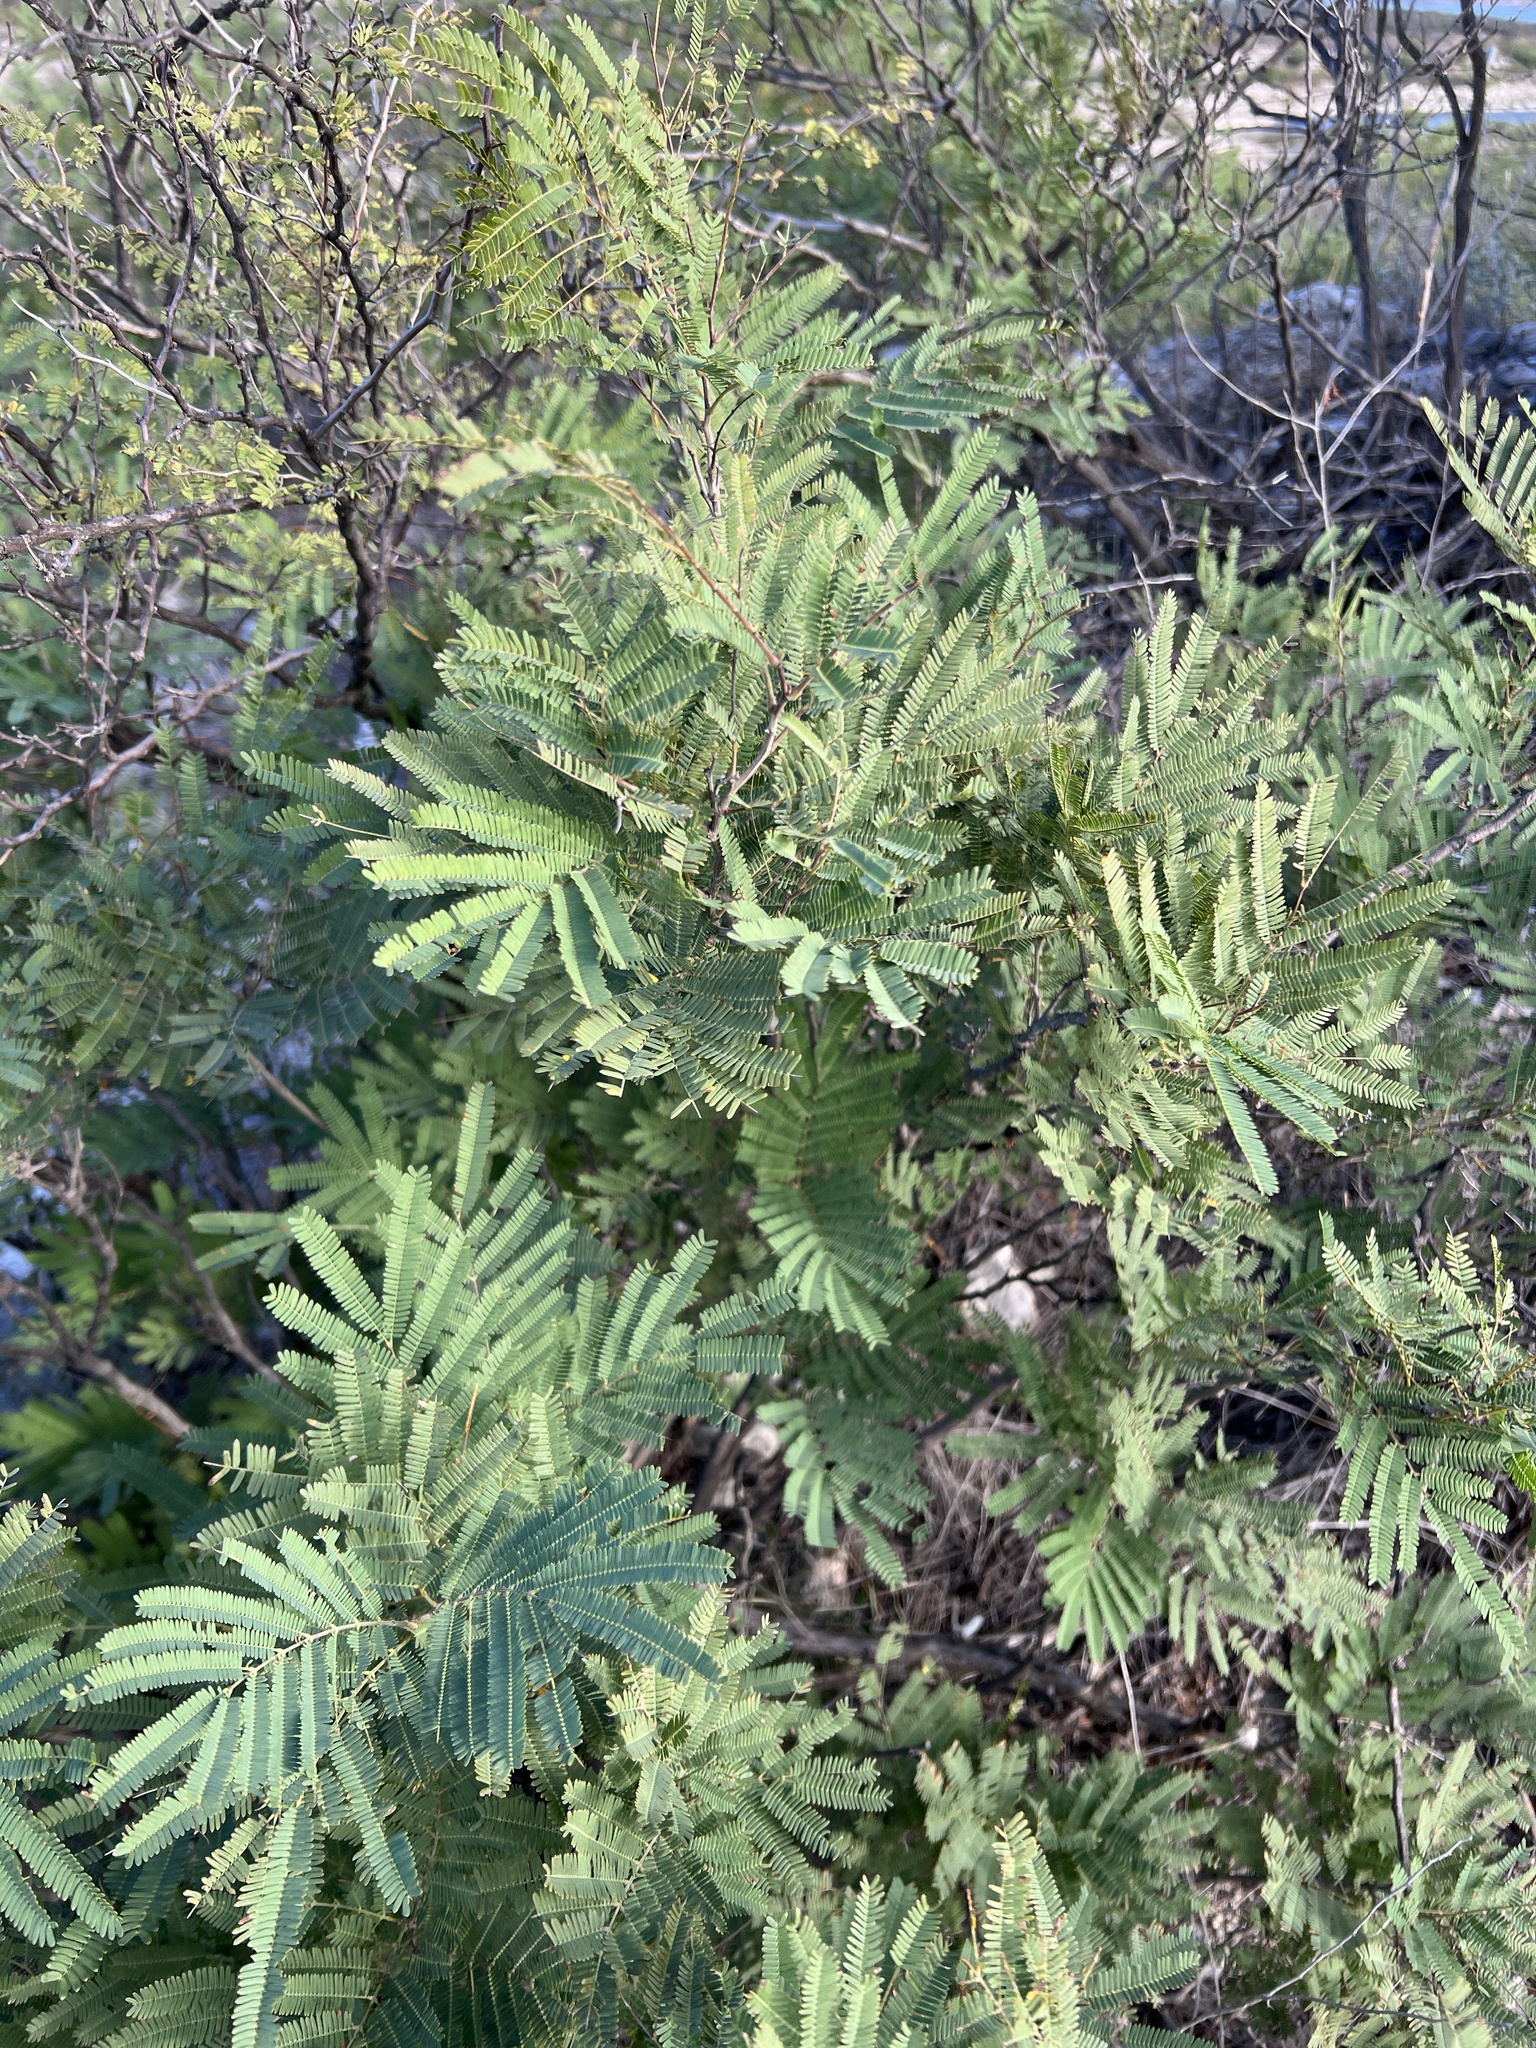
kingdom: Plantae
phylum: Tracheophyta
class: Magnoliopsida
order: Fabales
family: Fabaceae
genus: Senegalia
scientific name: Senegalia berlandieri
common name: Berlandier acacia
